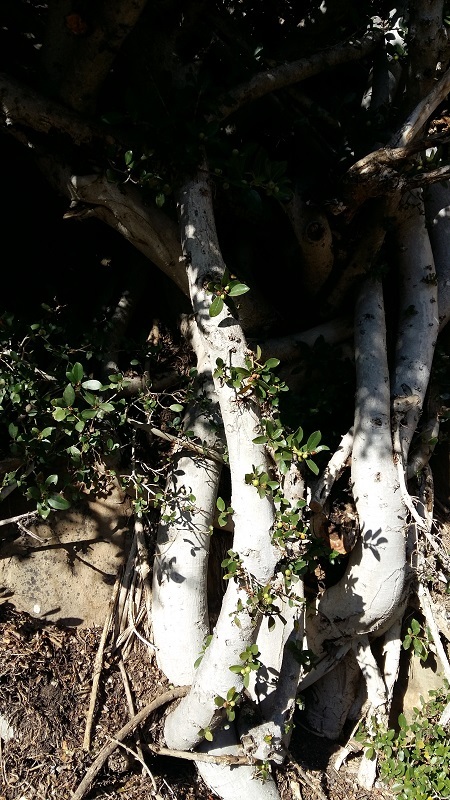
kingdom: Plantae
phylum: Tracheophyta
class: Magnoliopsida
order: Rosales
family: Moraceae
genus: Ficus
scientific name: Ficus burtt-davyi
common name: Scrambling fig
